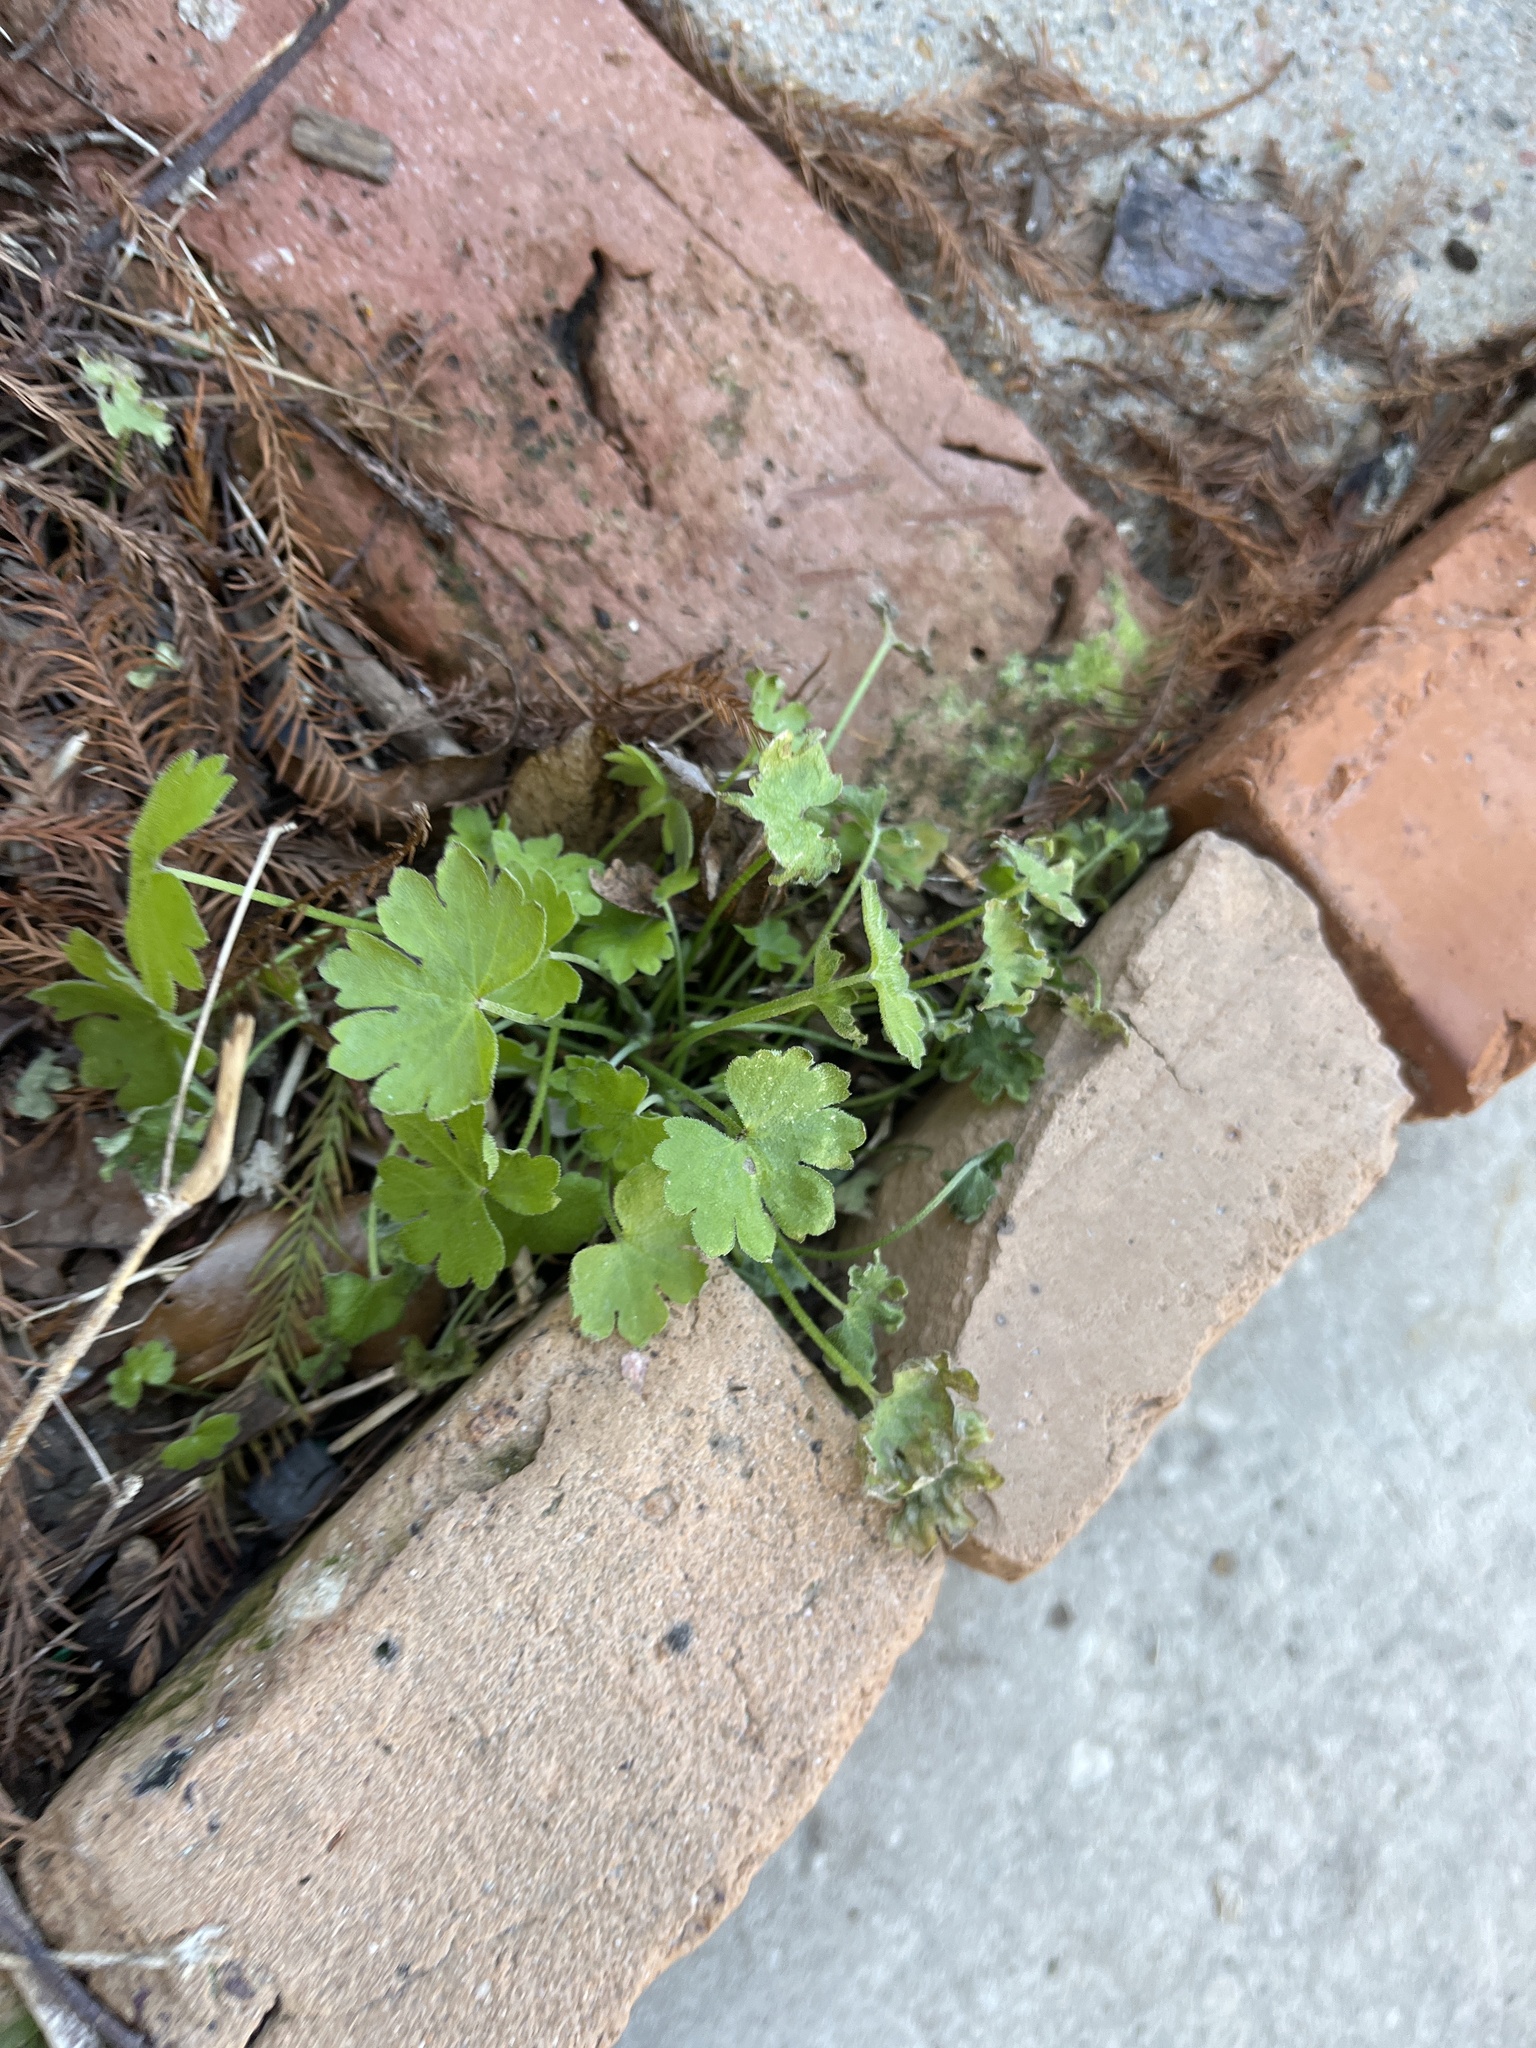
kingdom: Plantae
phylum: Tracheophyta
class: Magnoliopsida
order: Apiales
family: Apiaceae
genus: Bowlesia
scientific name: Bowlesia incana
